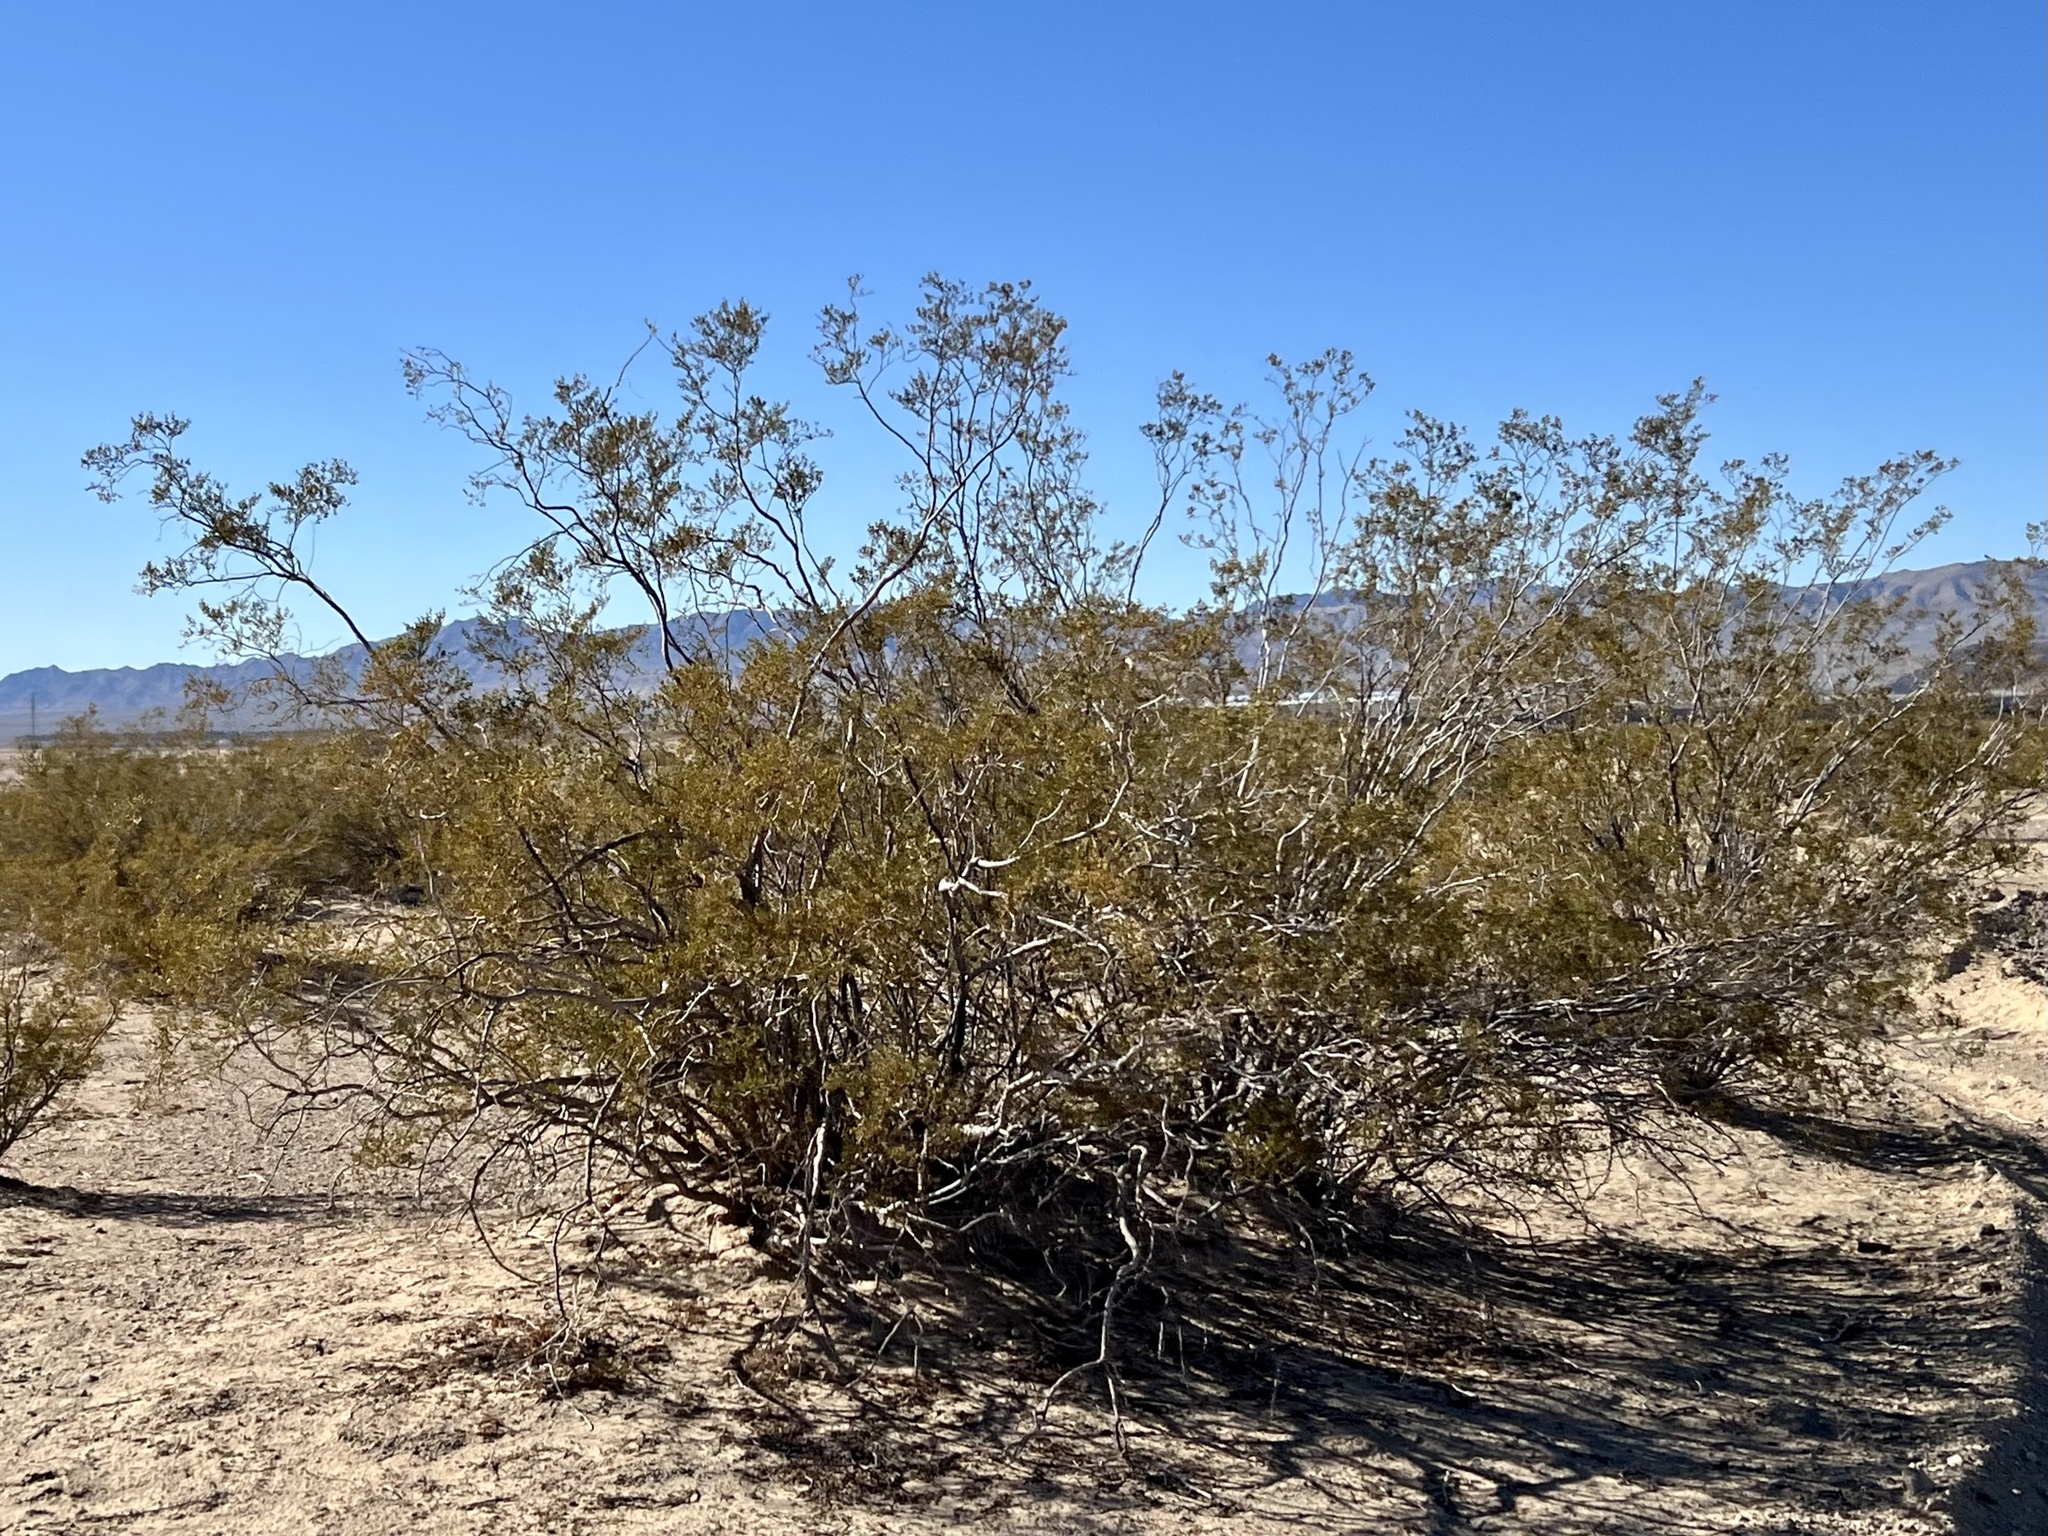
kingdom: Plantae
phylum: Tracheophyta
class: Magnoliopsida
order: Zygophyllales
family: Zygophyllaceae
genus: Larrea
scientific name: Larrea tridentata
